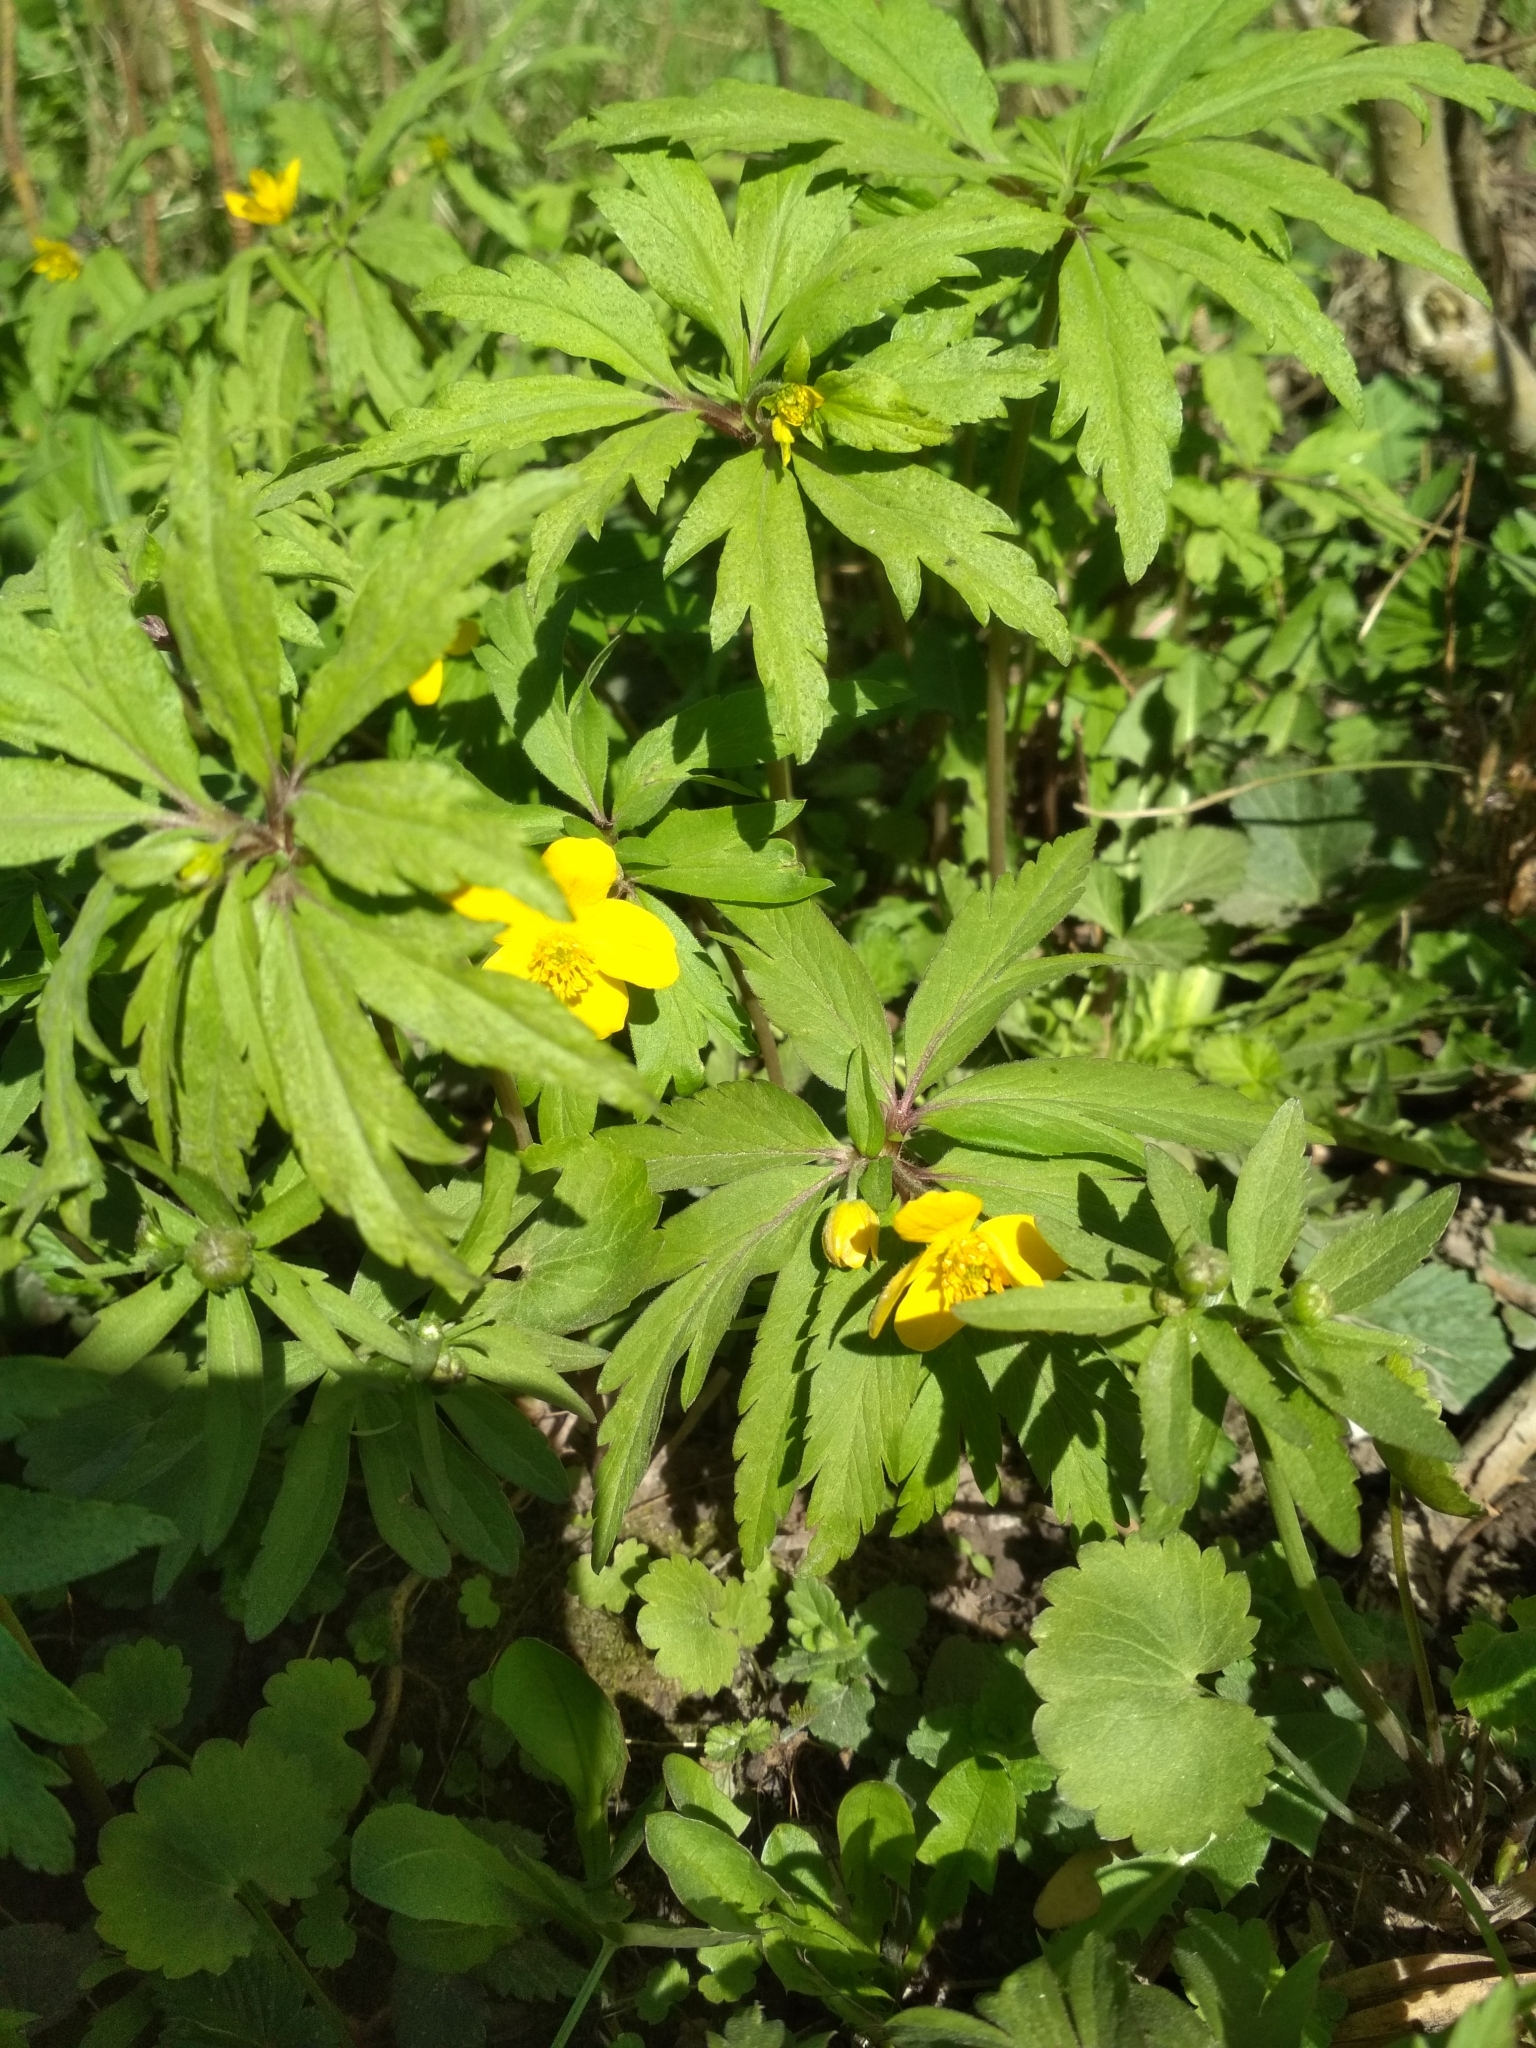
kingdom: Plantae
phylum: Tracheophyta
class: Magnoliopsida
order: Ranunculales
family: Ranunculaceae
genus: Anemone
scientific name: Anemone ranunculoides
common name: Yellow anemone
